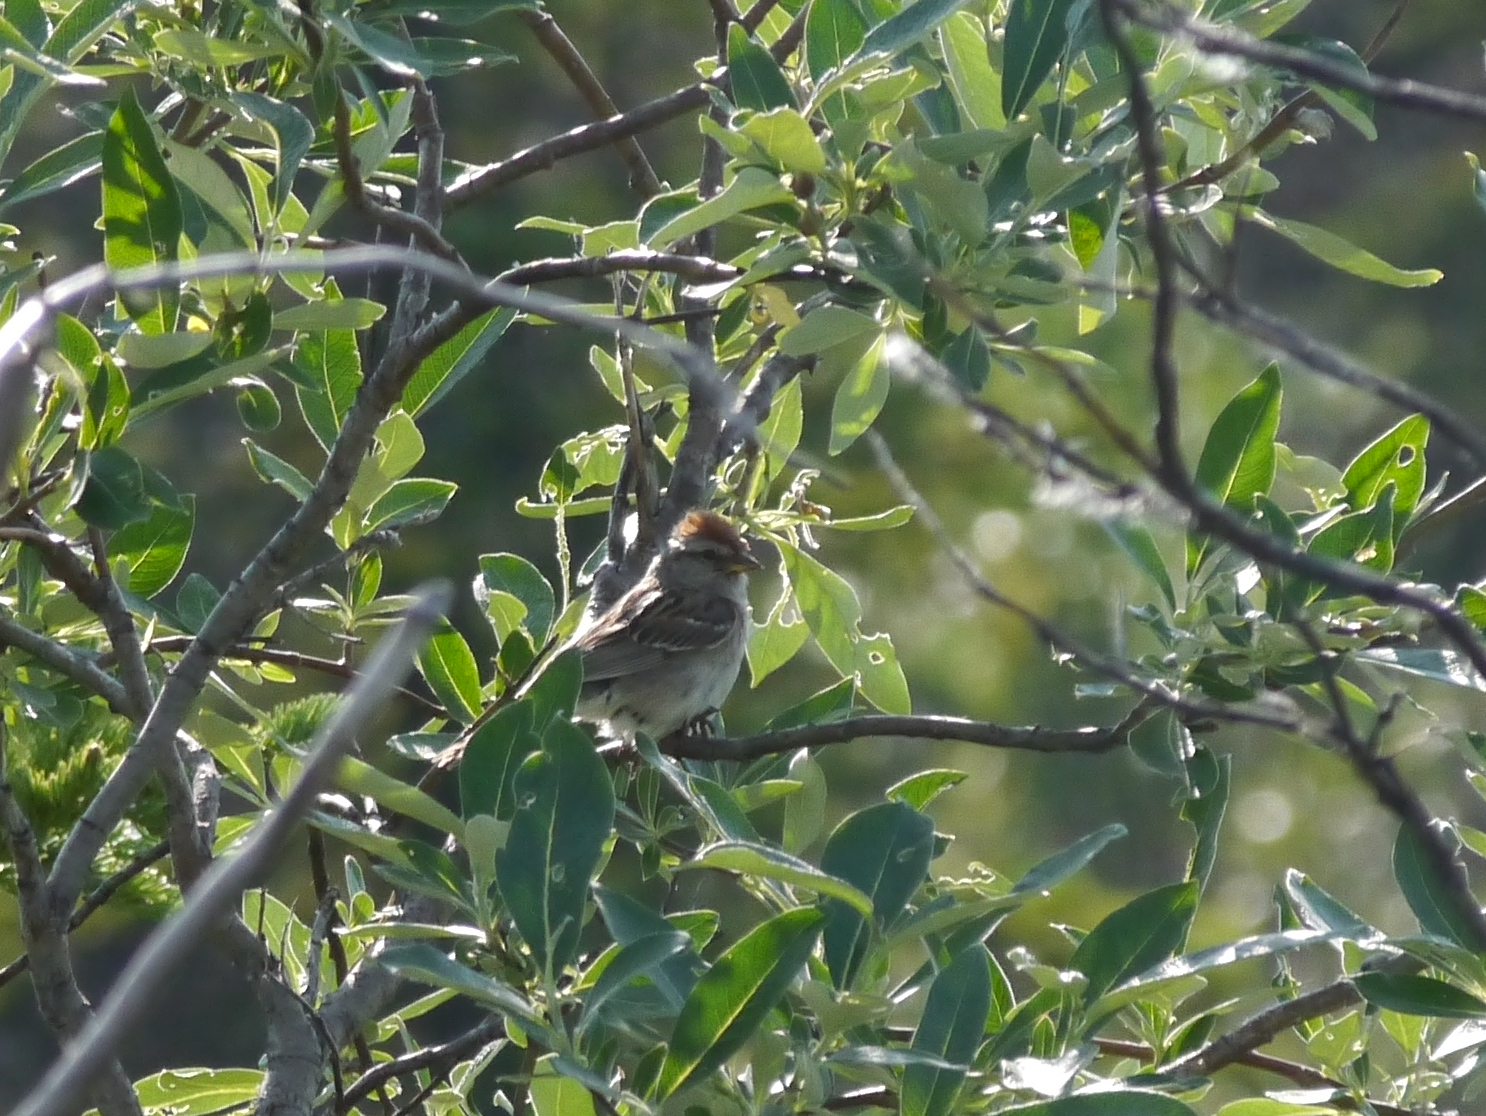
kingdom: Animalia
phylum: Chordata
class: Aves
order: Passeriformes
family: Passerellidae
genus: Spizelloides
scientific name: Spizelloides arborea
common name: American tree sparrow
